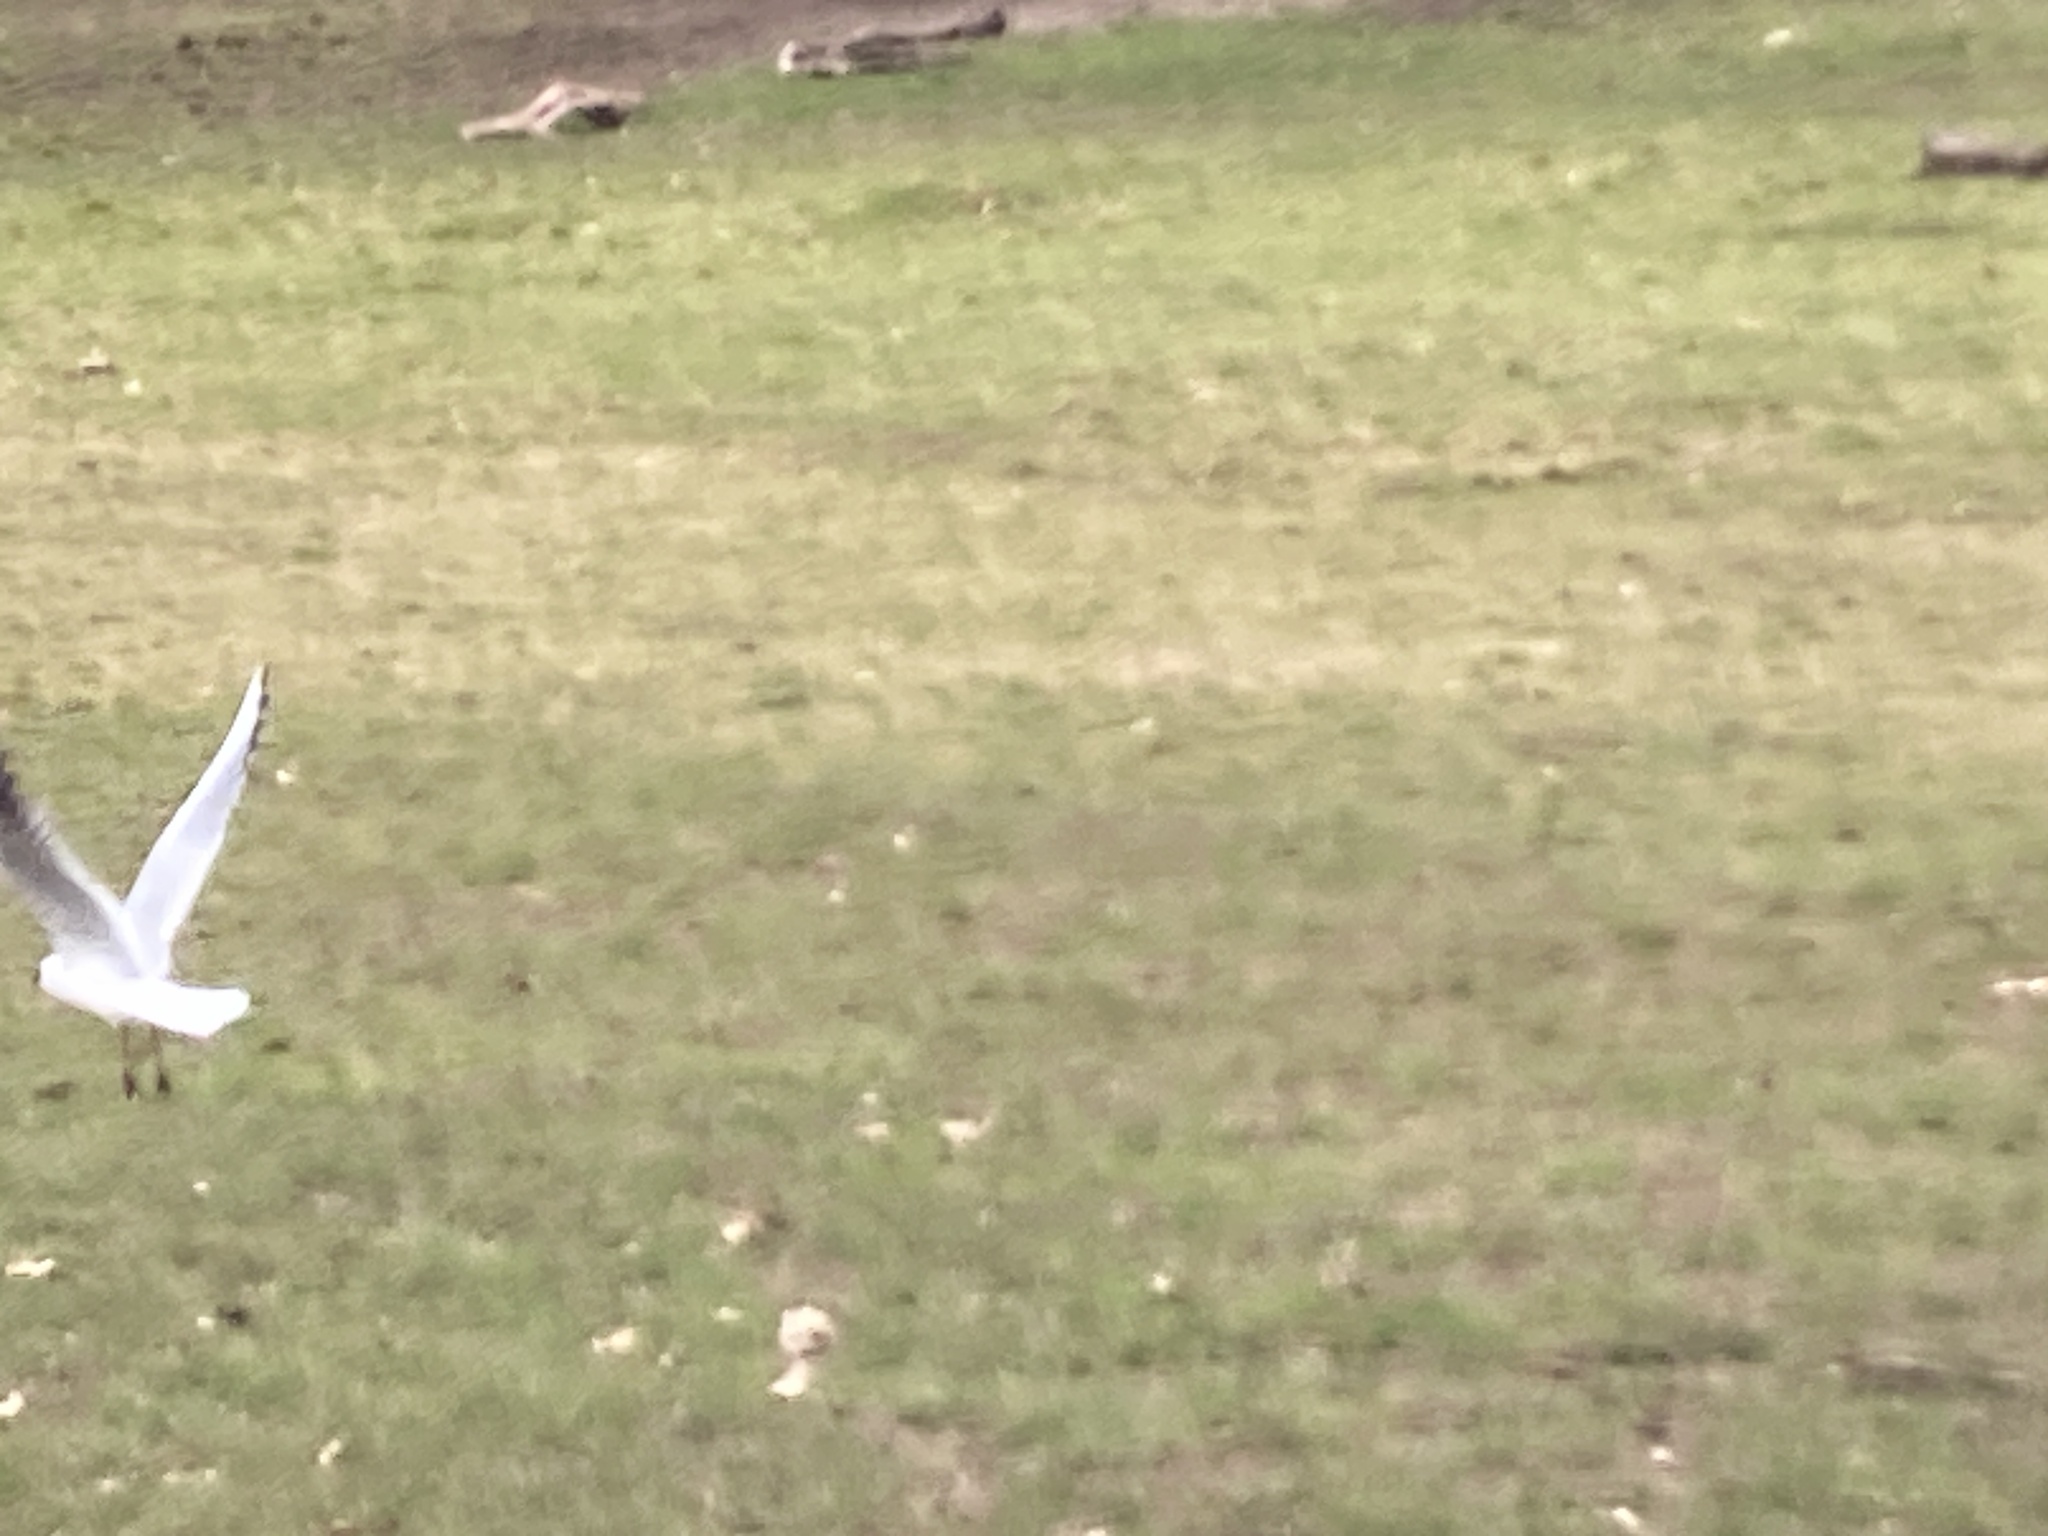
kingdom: Animalia
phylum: Chordata
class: Aves
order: Charadriiformes
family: Laridae
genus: Chroicocephalus
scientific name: Chroicocephalus ridibundus
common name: Black-headed gull
